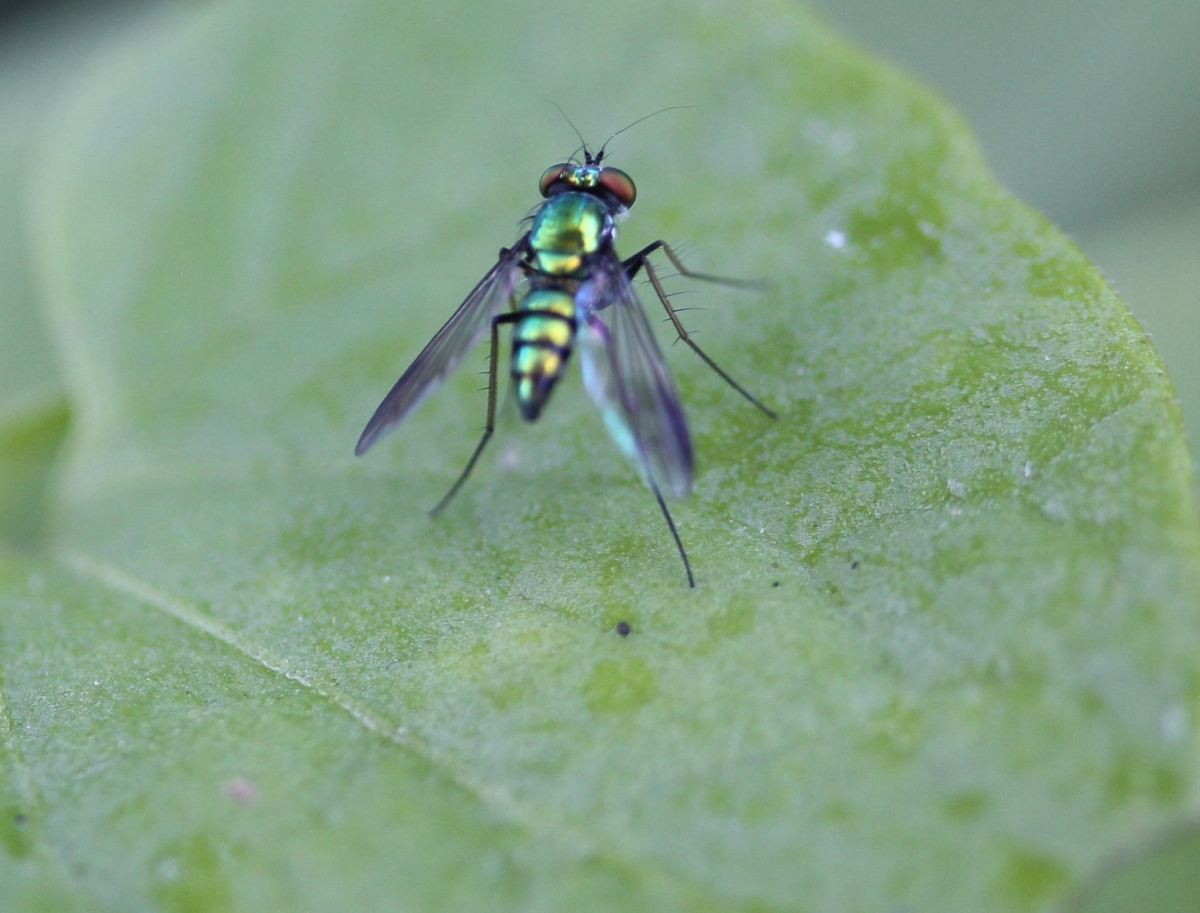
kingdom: Animalia
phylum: Arthropoda
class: Insecta
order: Diptera
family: Dolichopodidae
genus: Condylostylus
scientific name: Condylostylus
